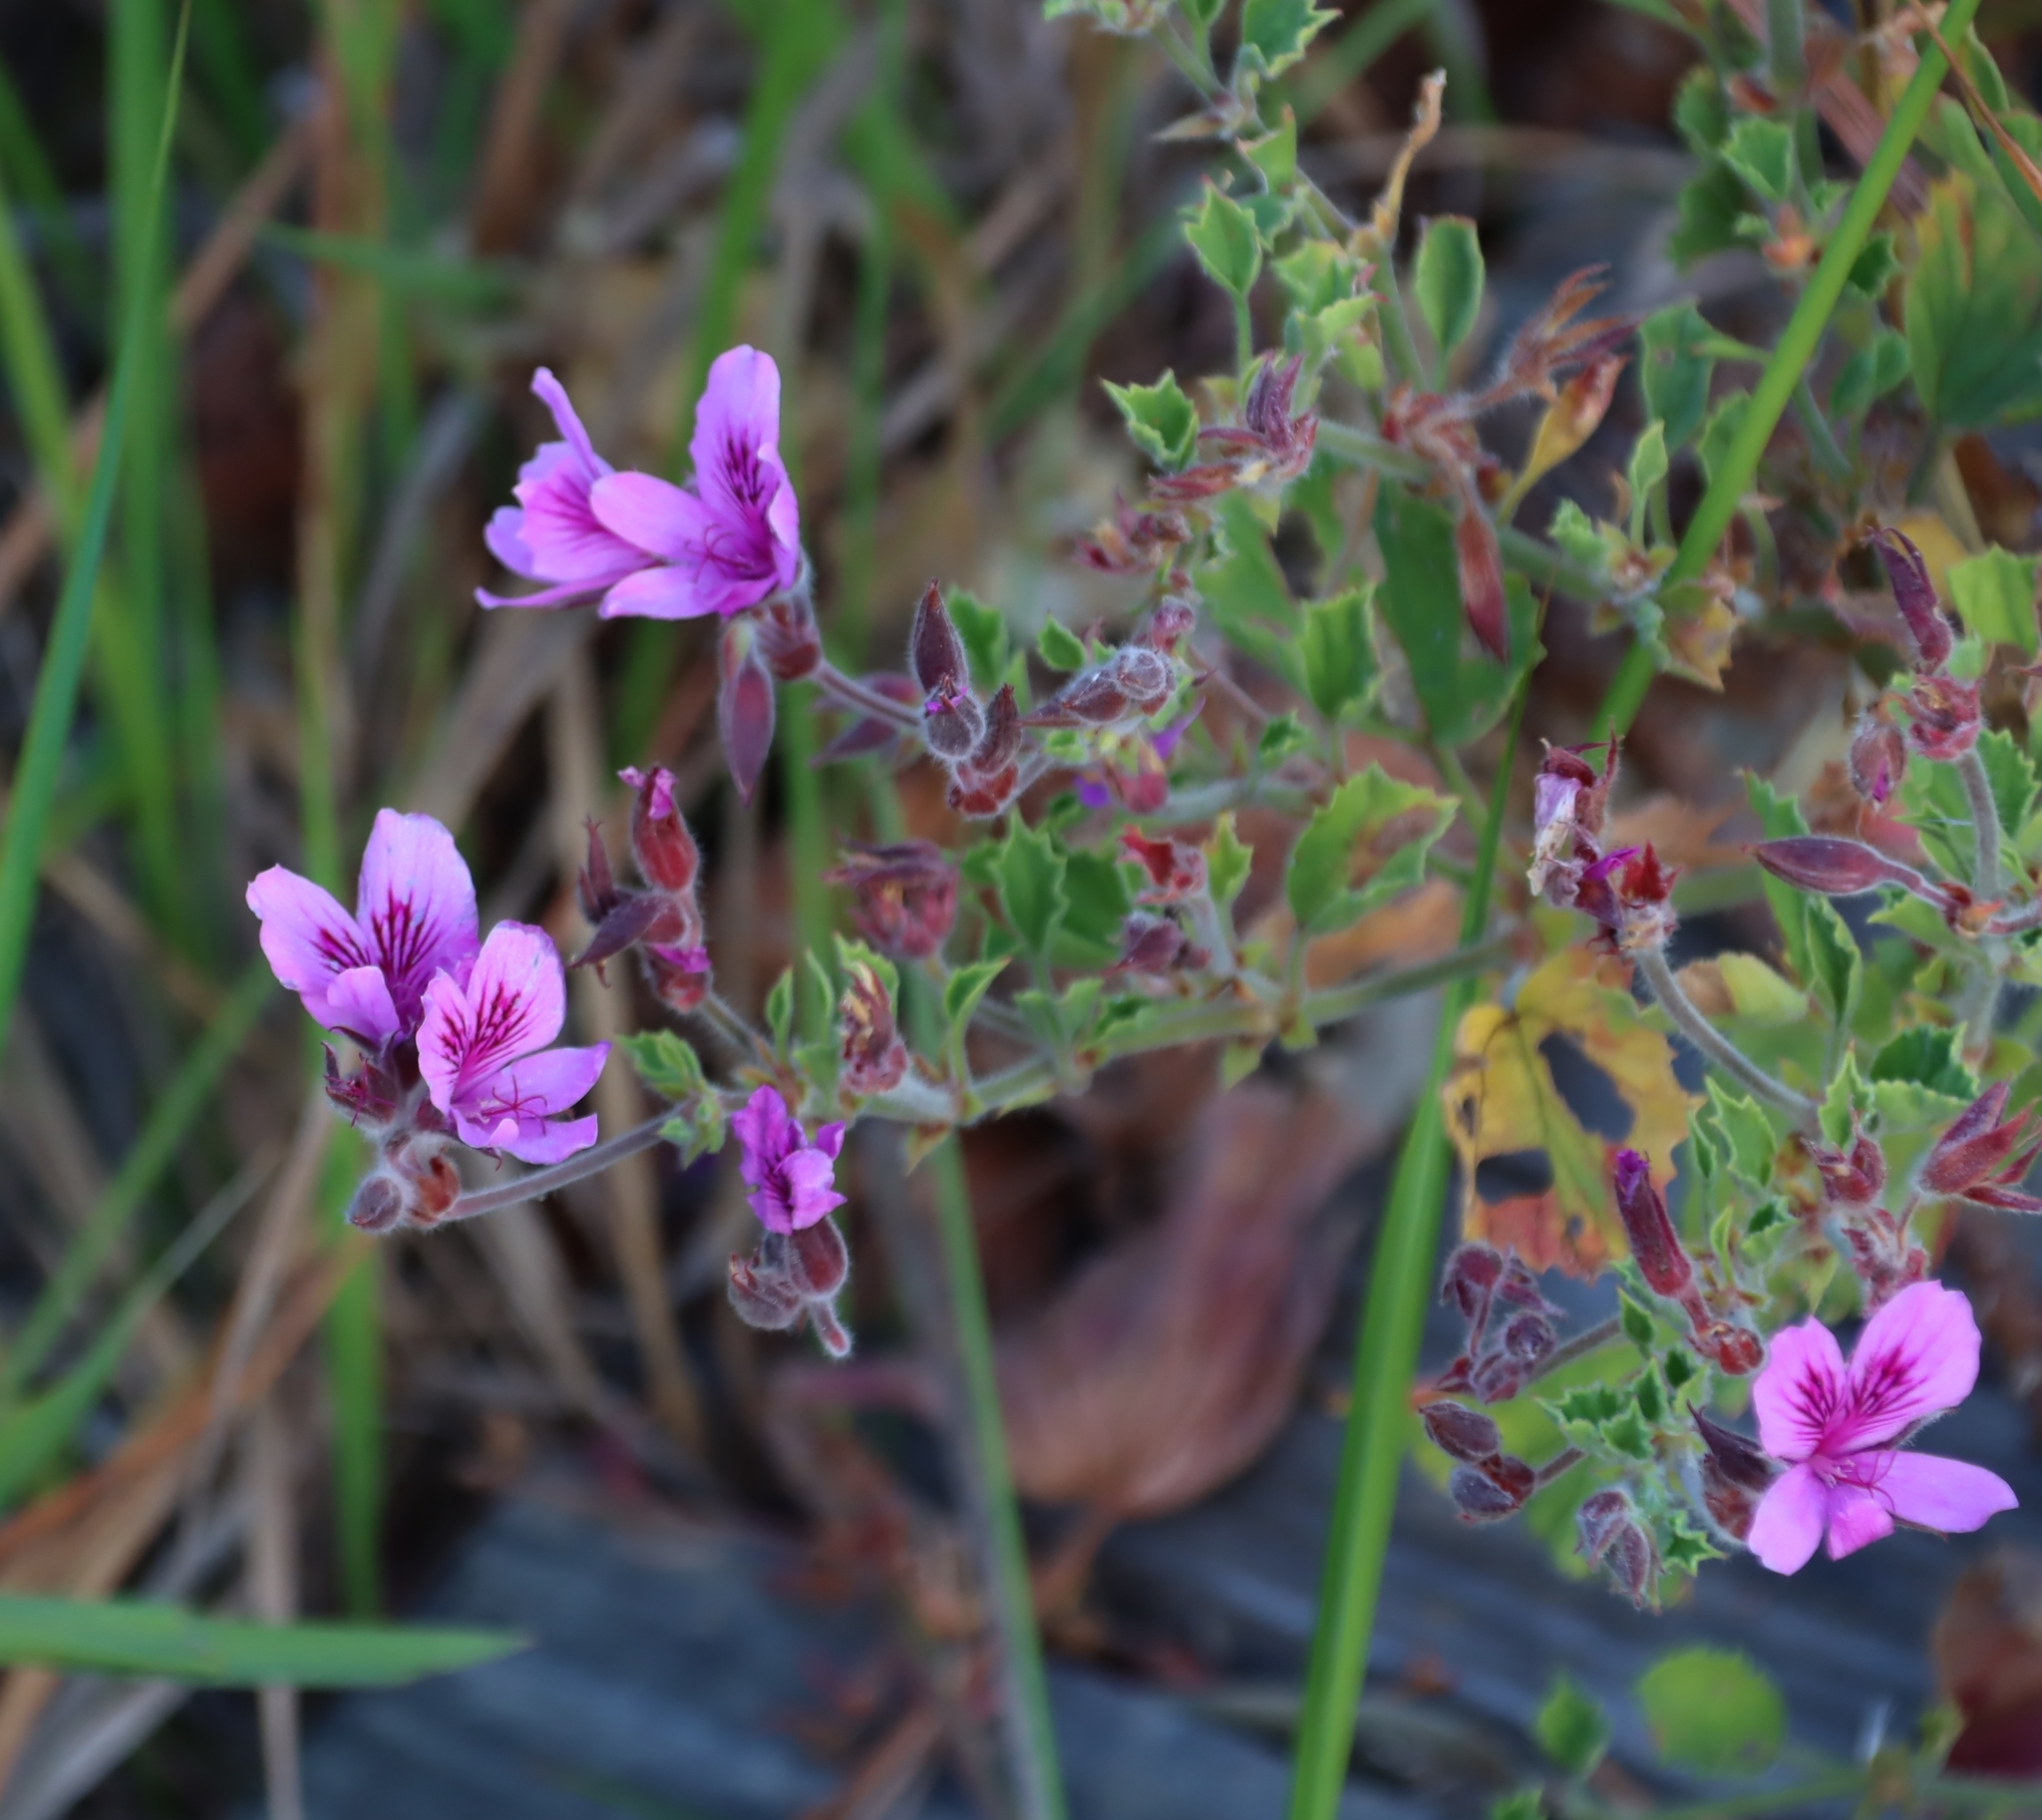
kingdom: Plantae
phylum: Tracheophyta
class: Magnoliopsida
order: Geraniales
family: Geraniaceae
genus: Pelargonium
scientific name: Pelargonium cucullatum
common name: Tree pelargonium
